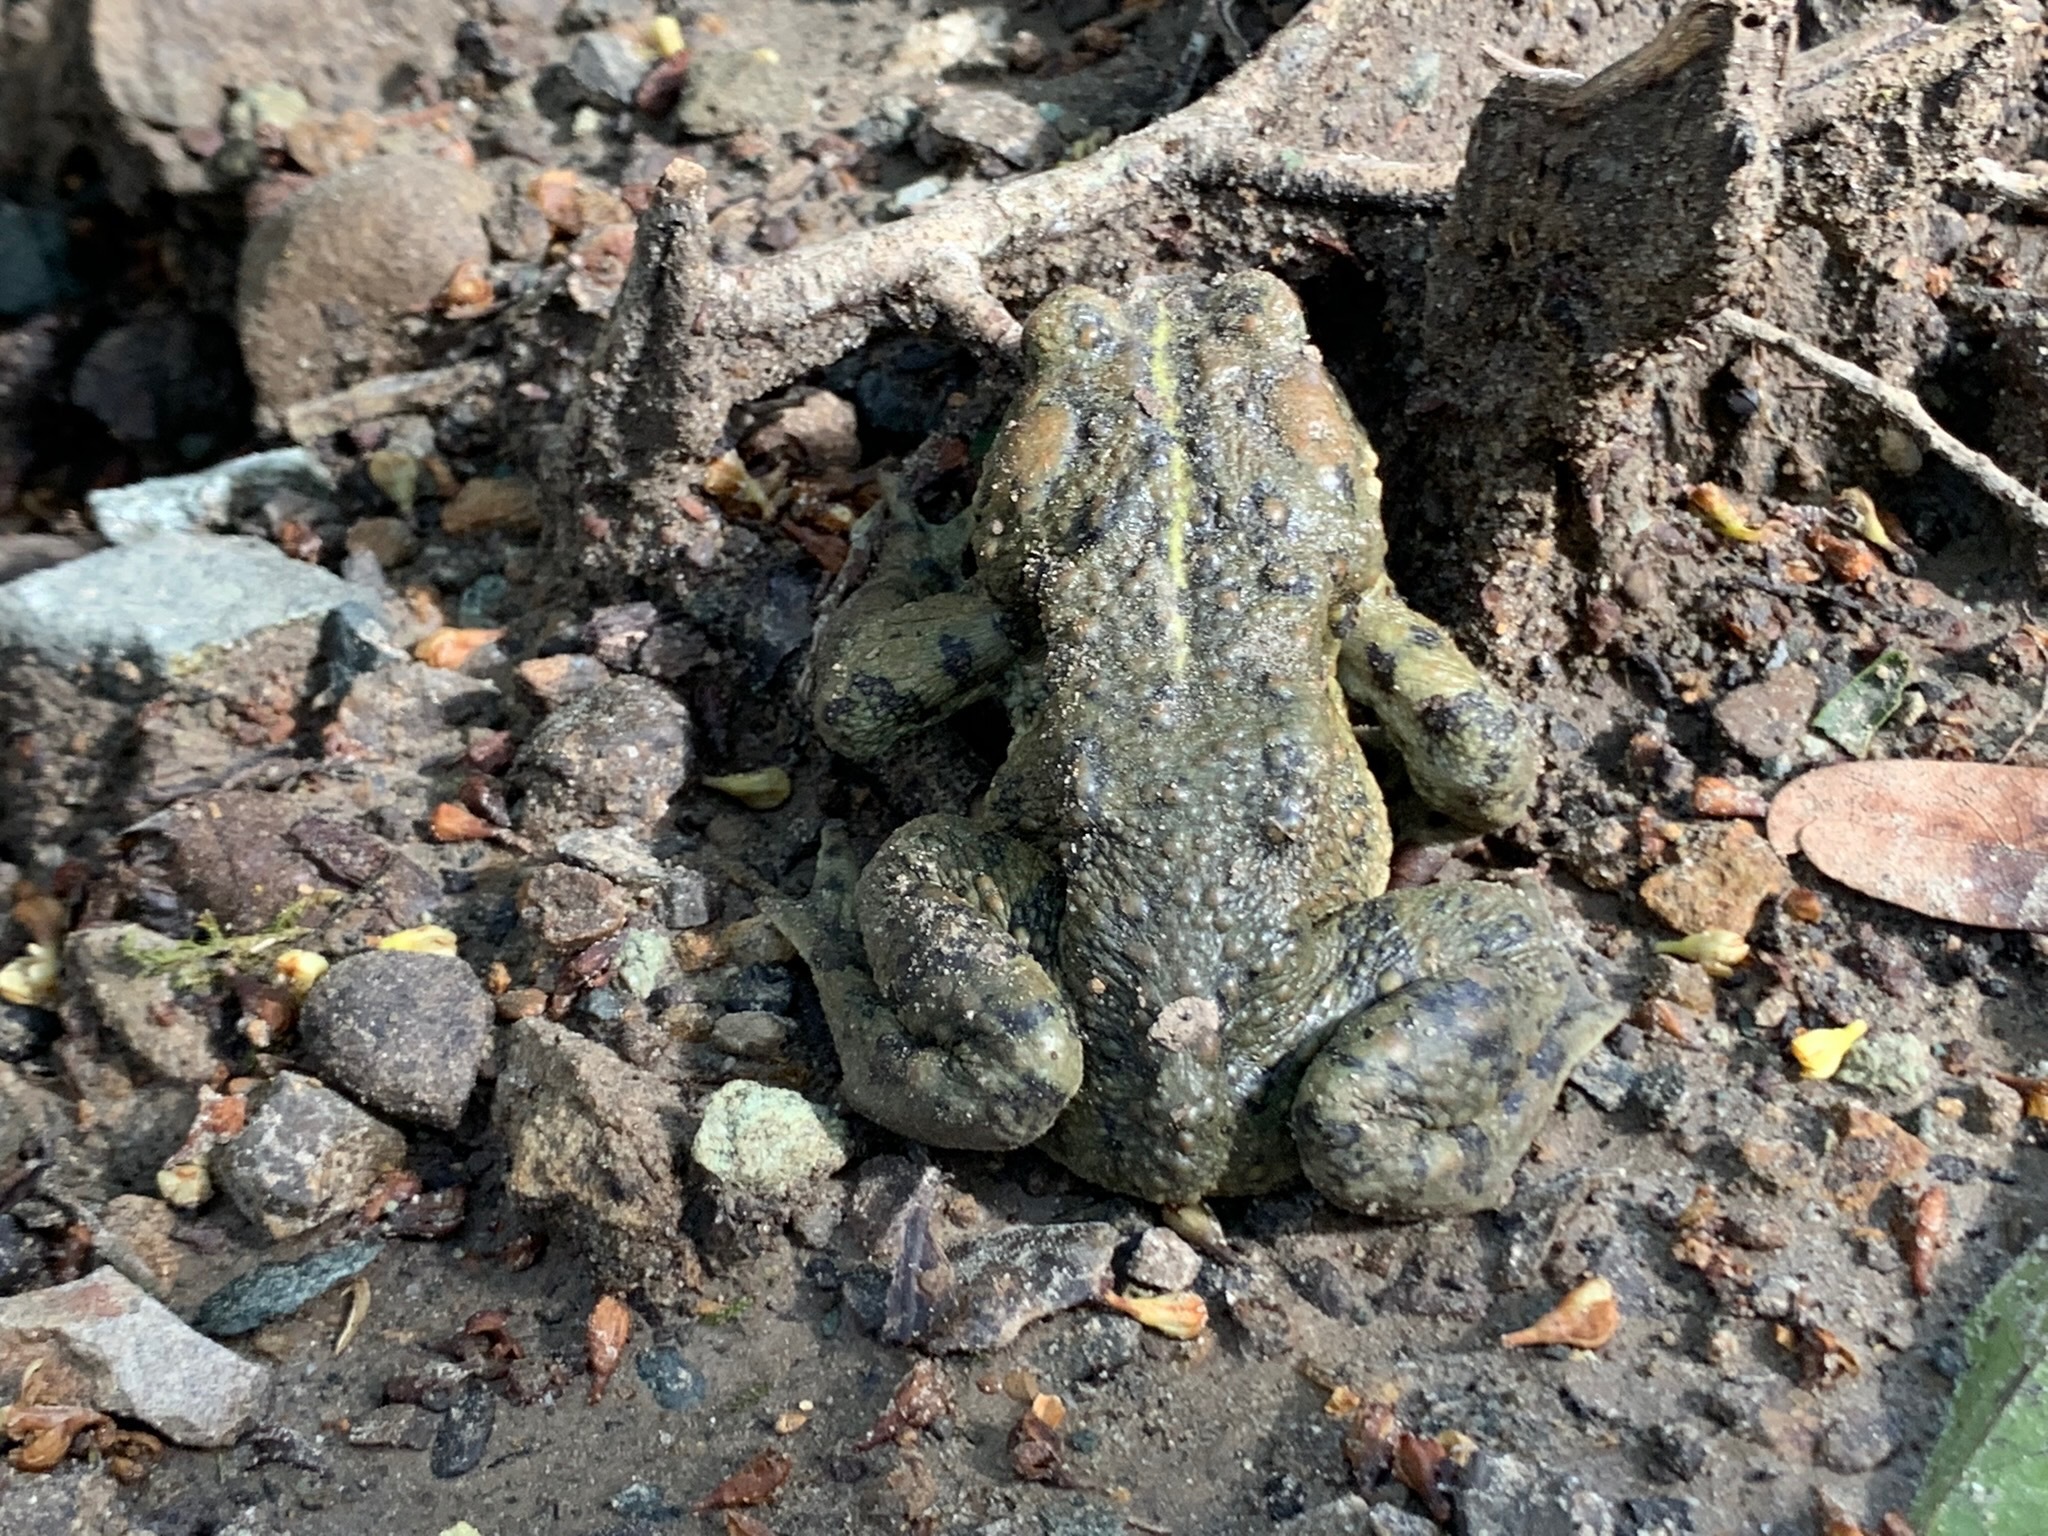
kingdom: Animalia
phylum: Chordata
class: Amphibia
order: Anura
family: Bufonidae
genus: Anaxyrus
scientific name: Anaxyrus boreas
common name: Western toad
